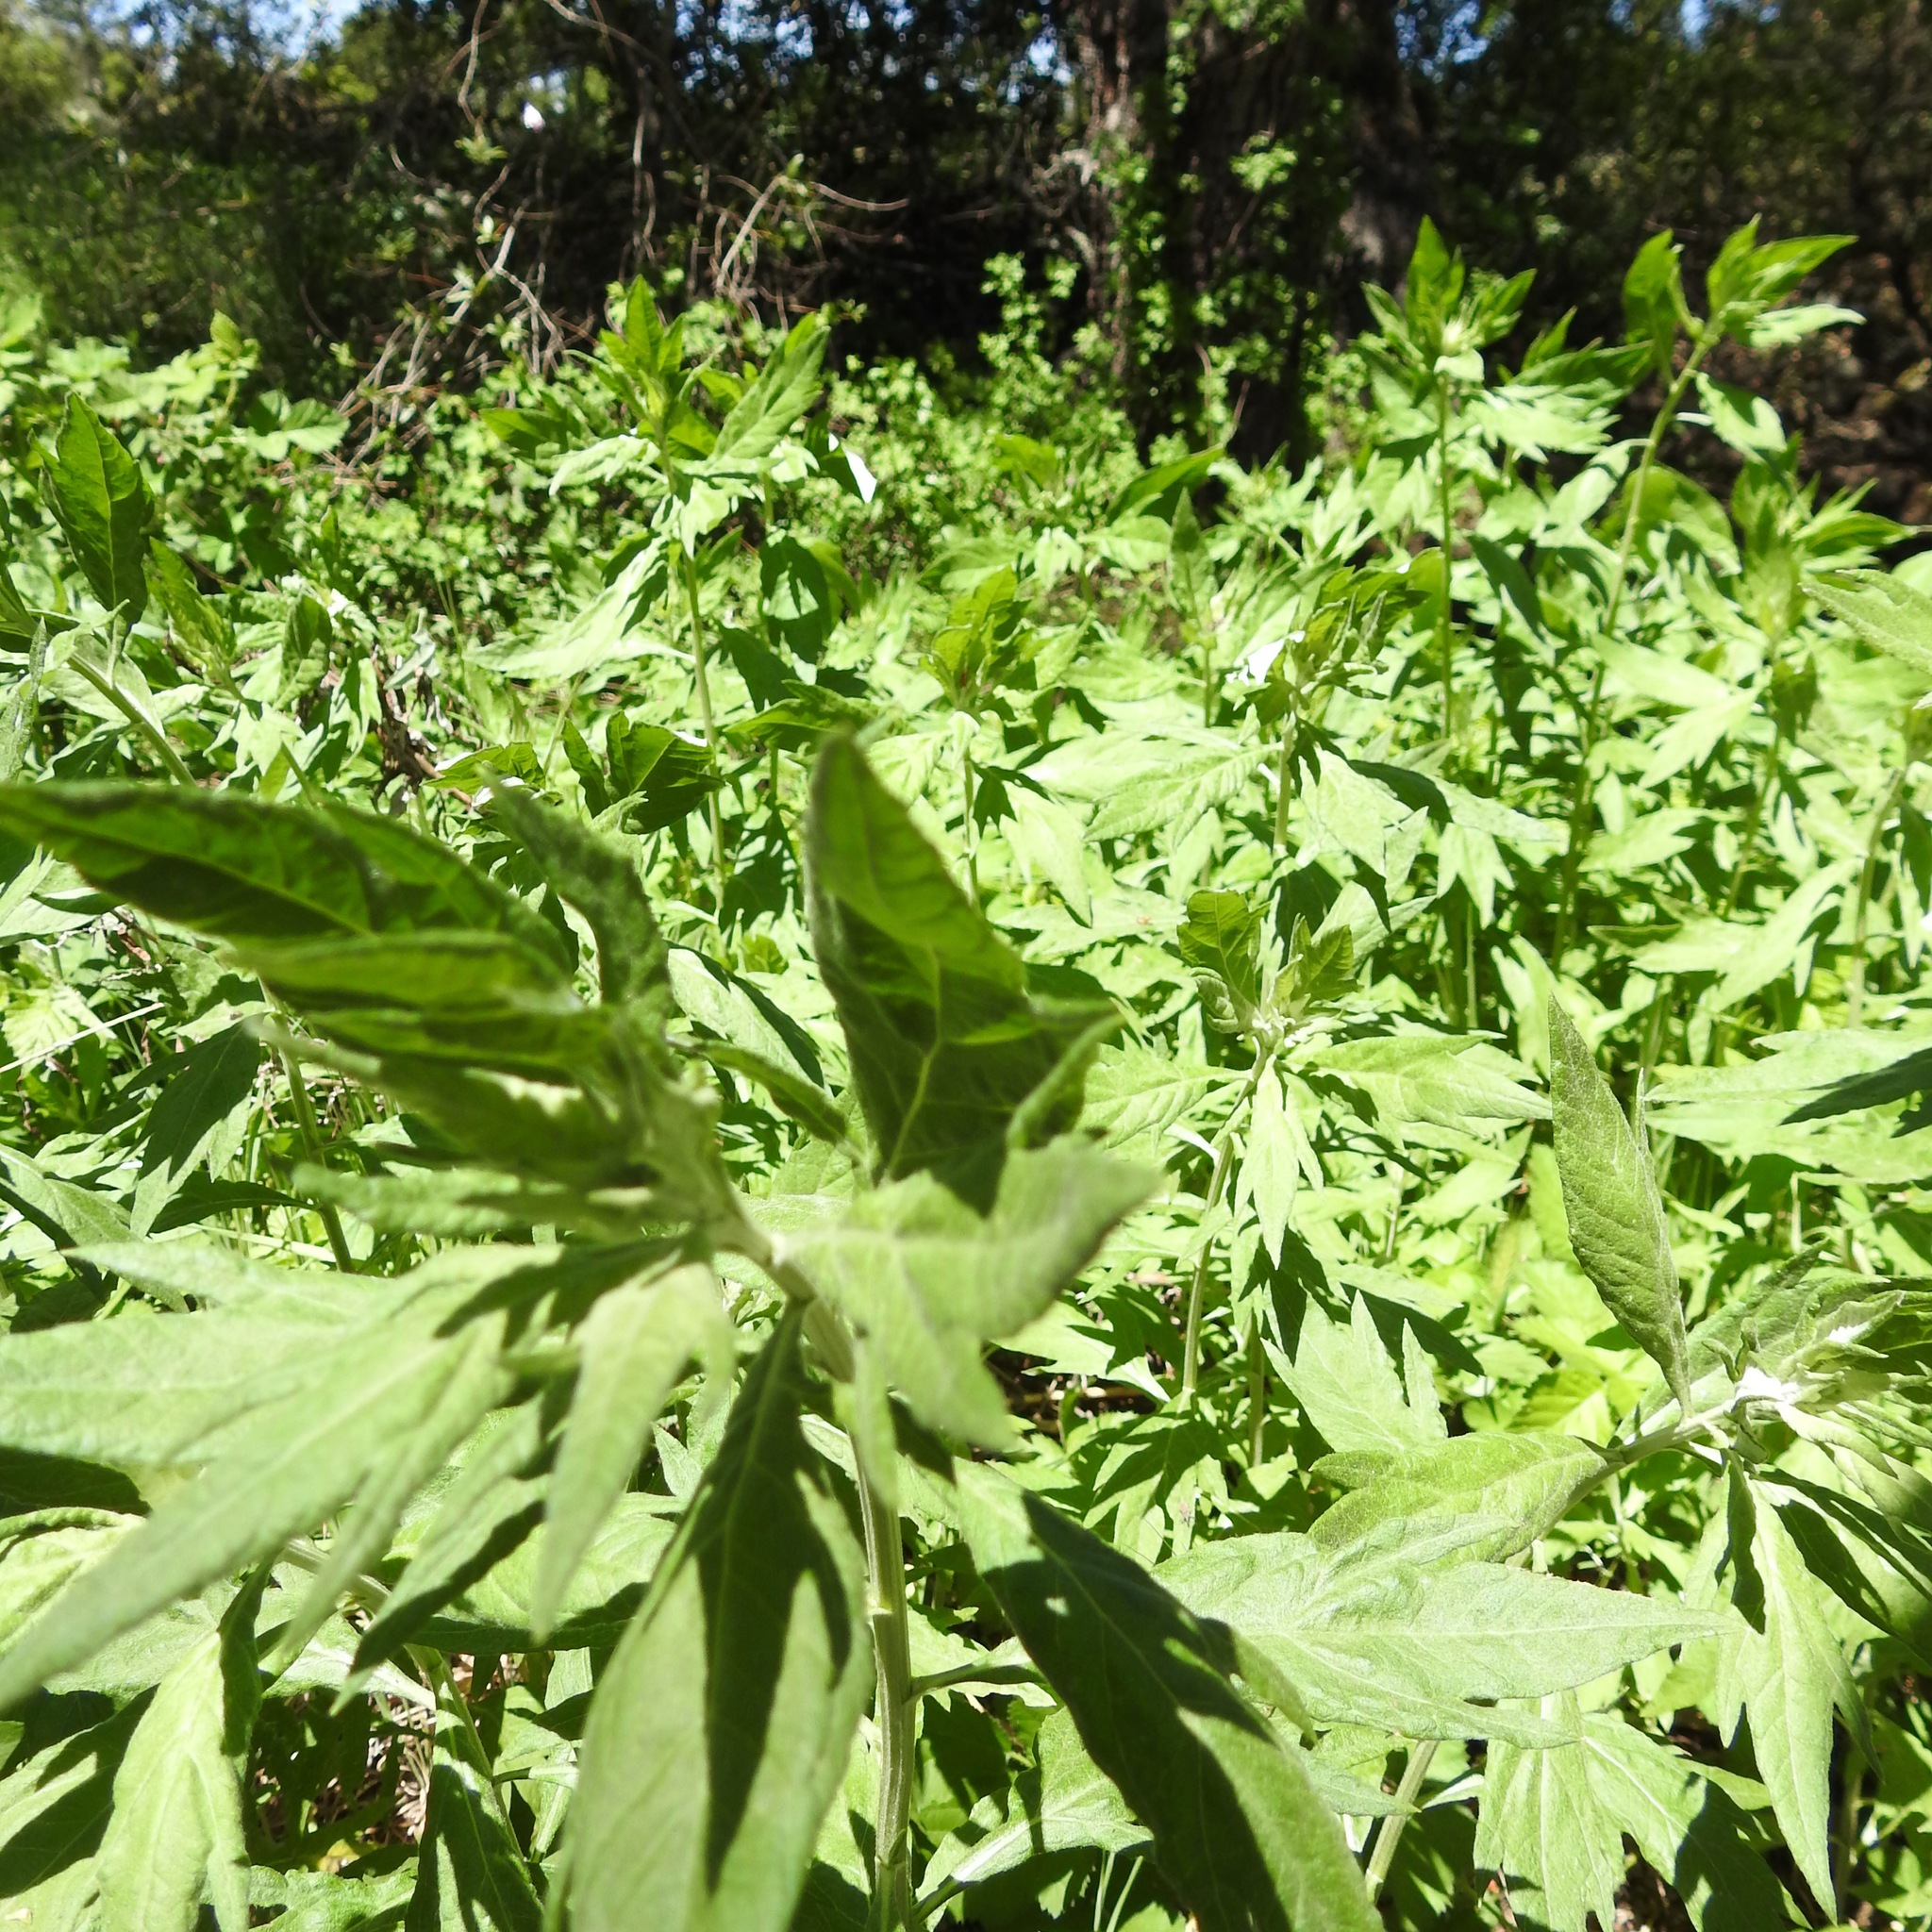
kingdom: Plantae
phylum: Tracheophyta
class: Magnoliopsida
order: Asterales
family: Asteraceae
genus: Artemisia
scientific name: Artemisia douglasiana
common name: Northwest mugwort
